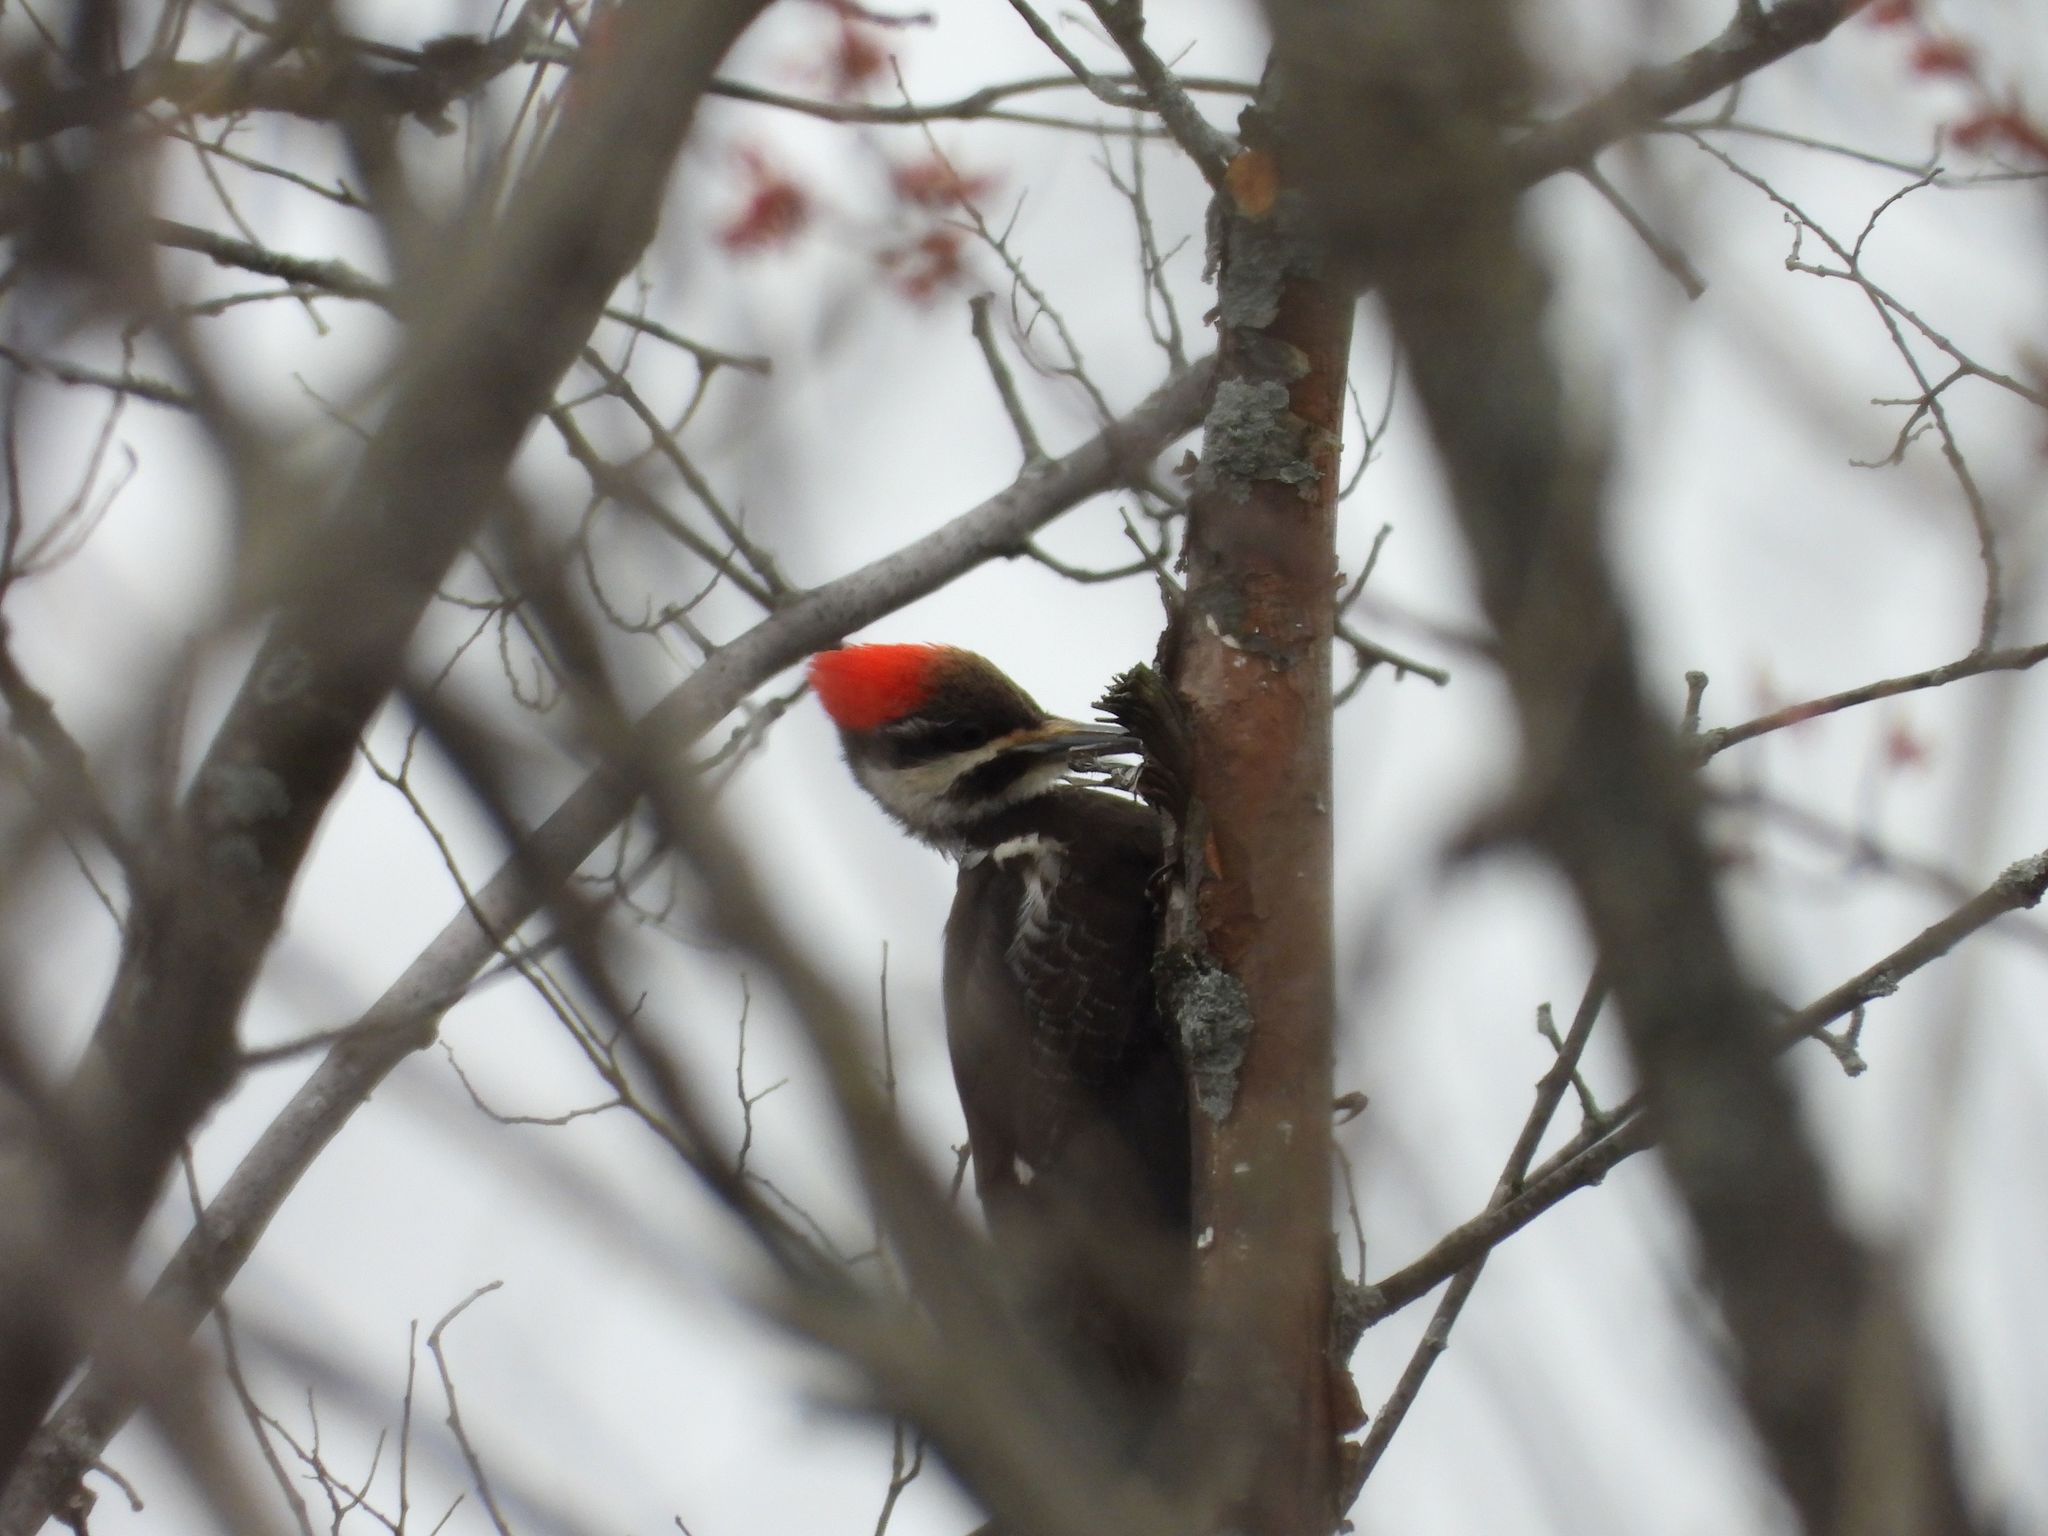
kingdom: Animalia
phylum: Chordata
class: Aves
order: Piciformes
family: Picidae
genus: Dryocopus
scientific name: Dryocopus pileatus
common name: Pileated woodpecker
